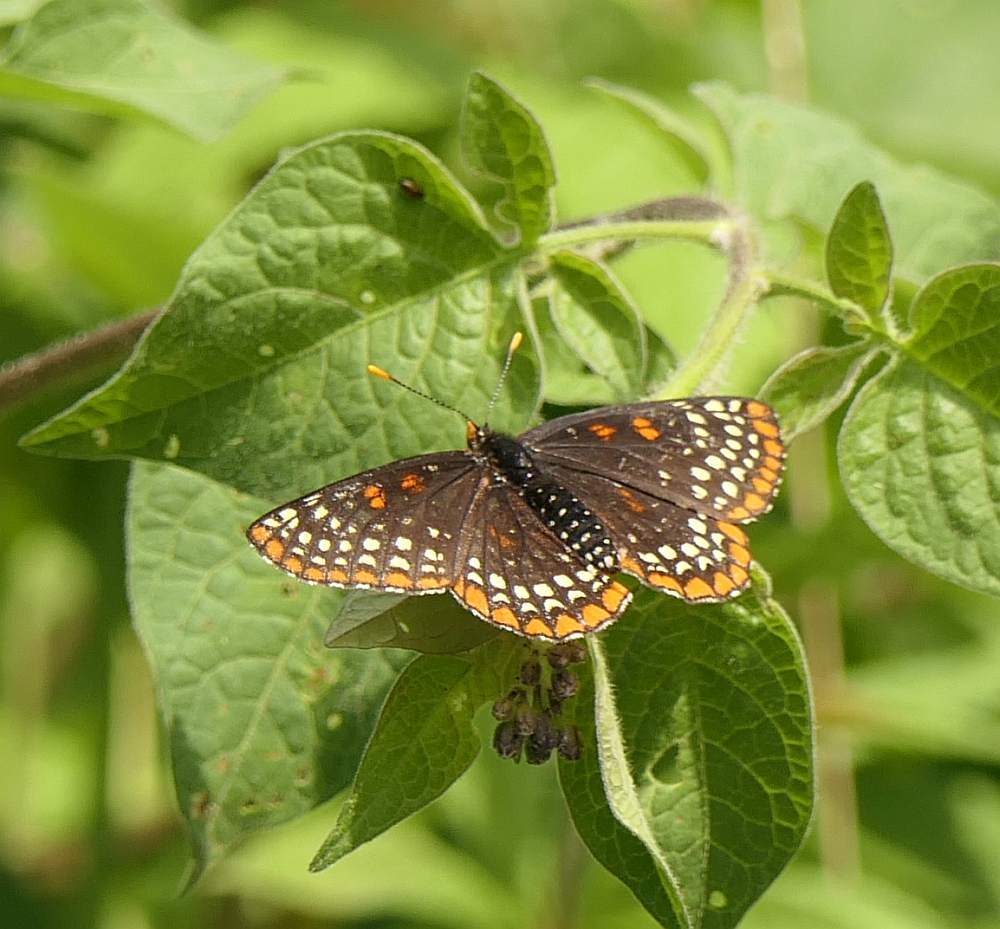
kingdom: Animalia
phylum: Arthropoda
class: Insecta
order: Lepidoptera
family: Nymphalidae
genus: Euphydryas
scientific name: Euphydryas phaeton
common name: Baltimore checkerspot
